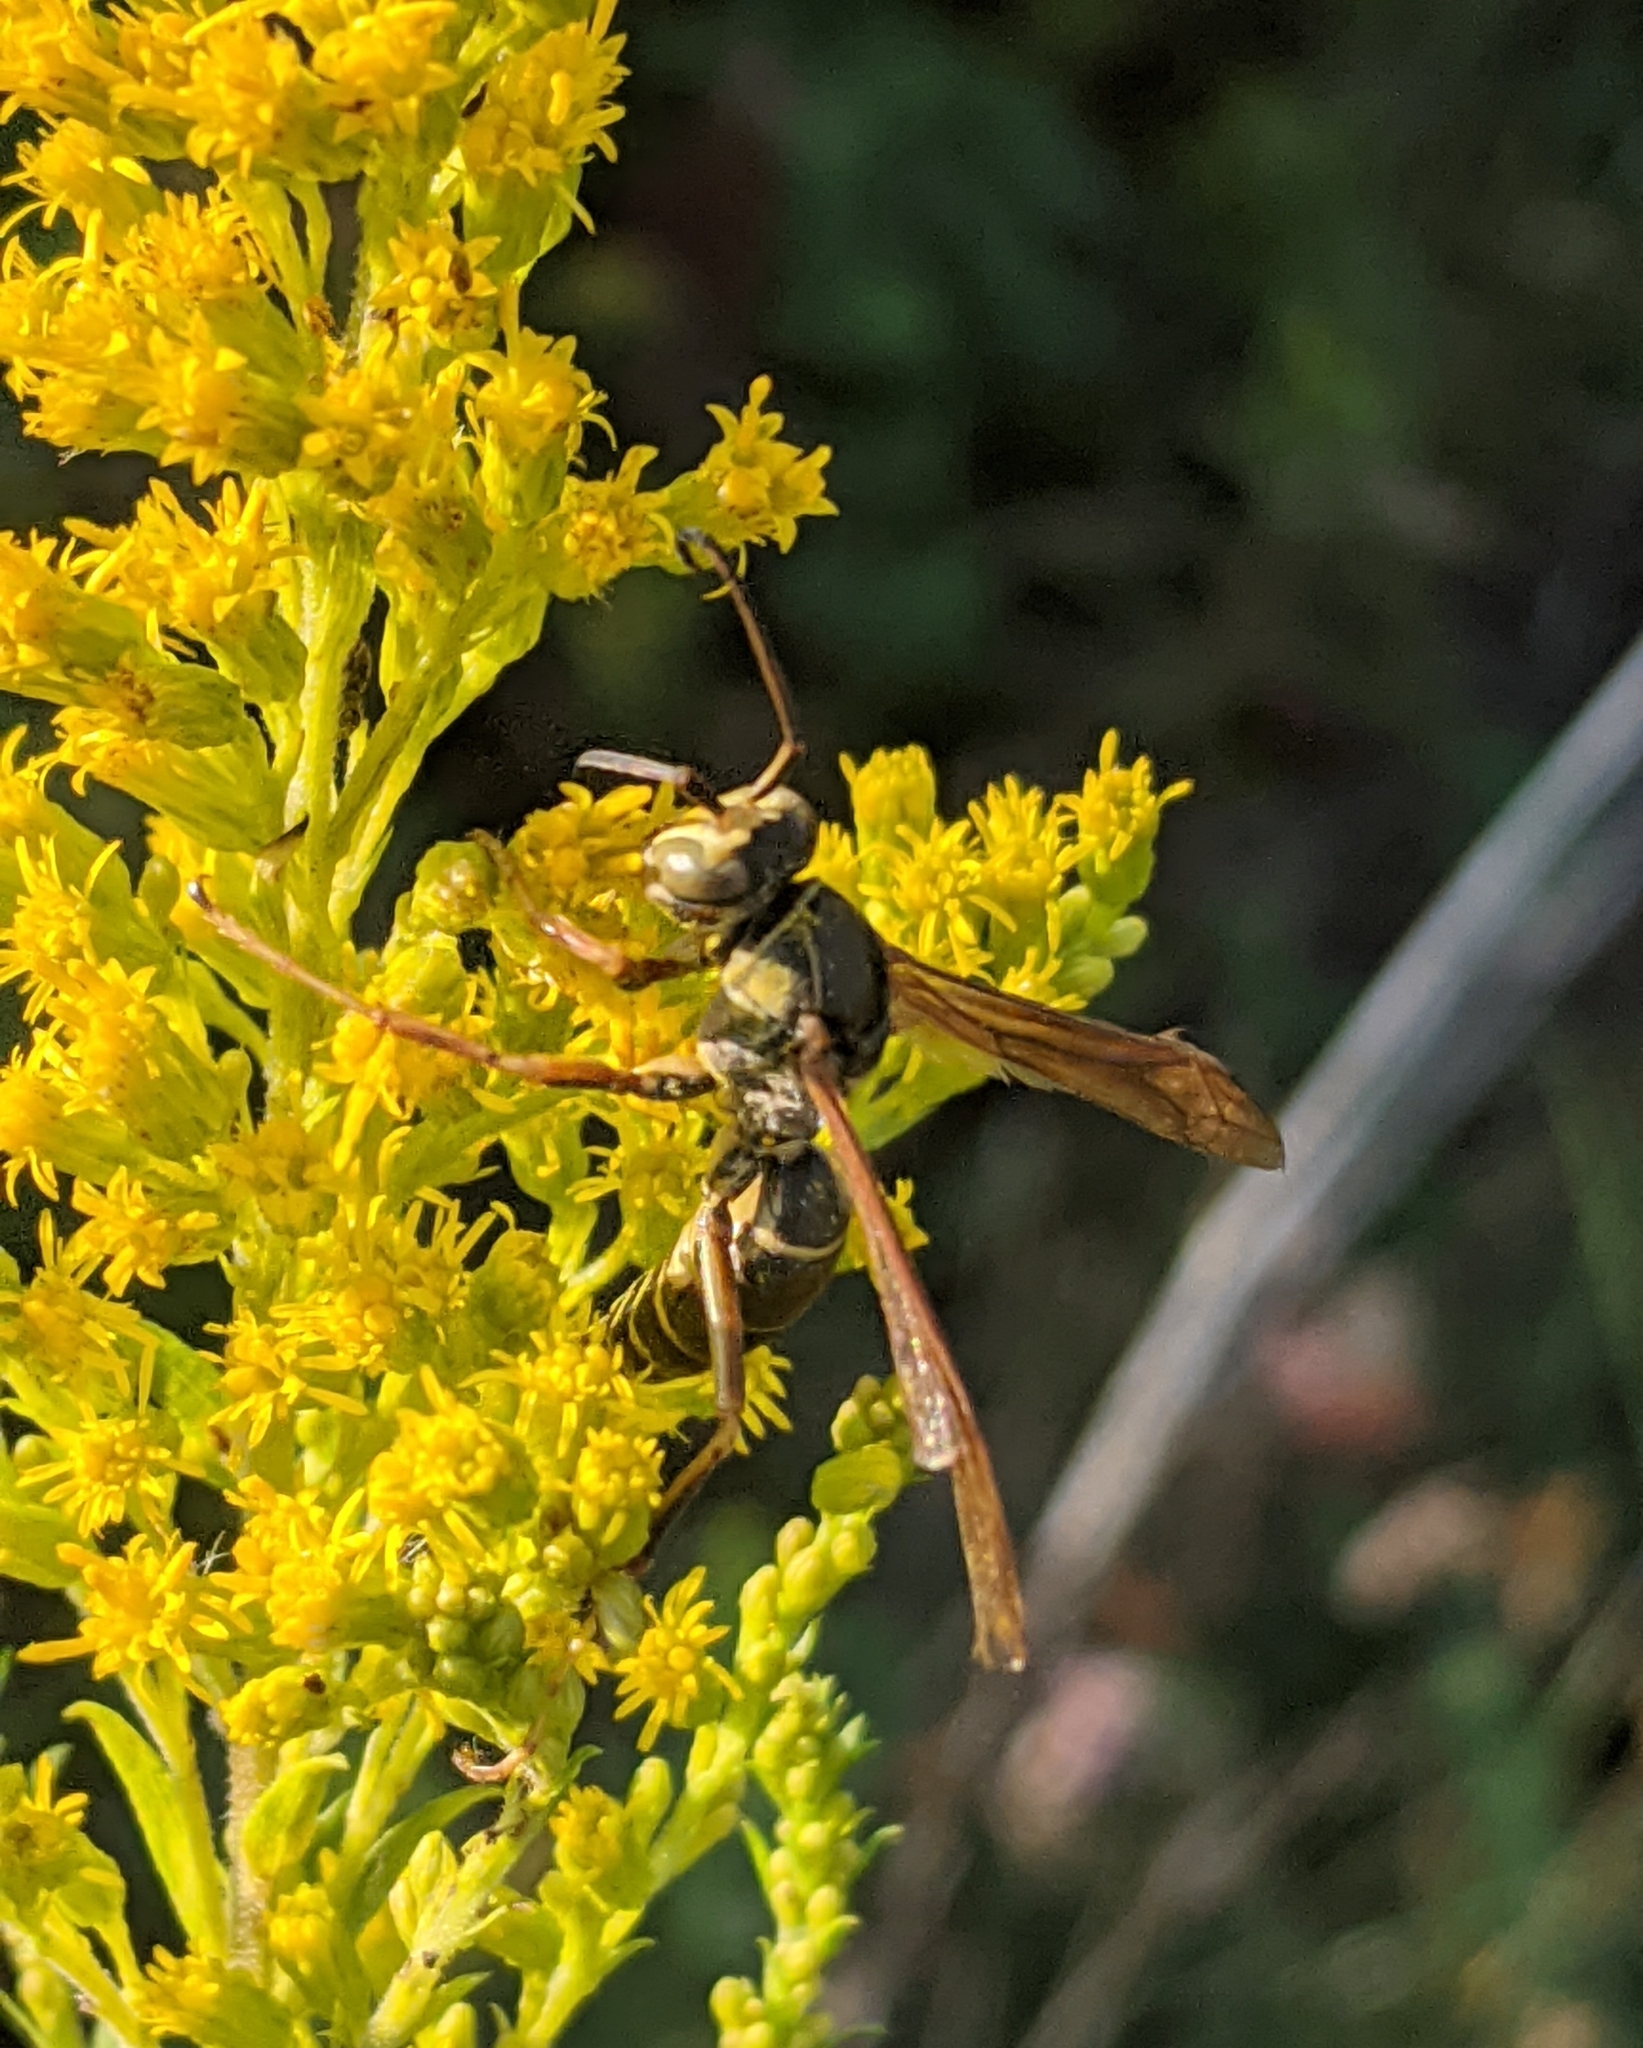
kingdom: Animalia
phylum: Arthropoda
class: Insecta
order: Hymenoptera
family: Eumenidae
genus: Polistes
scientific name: Polistes fuscatus
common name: Dark paper wasp
